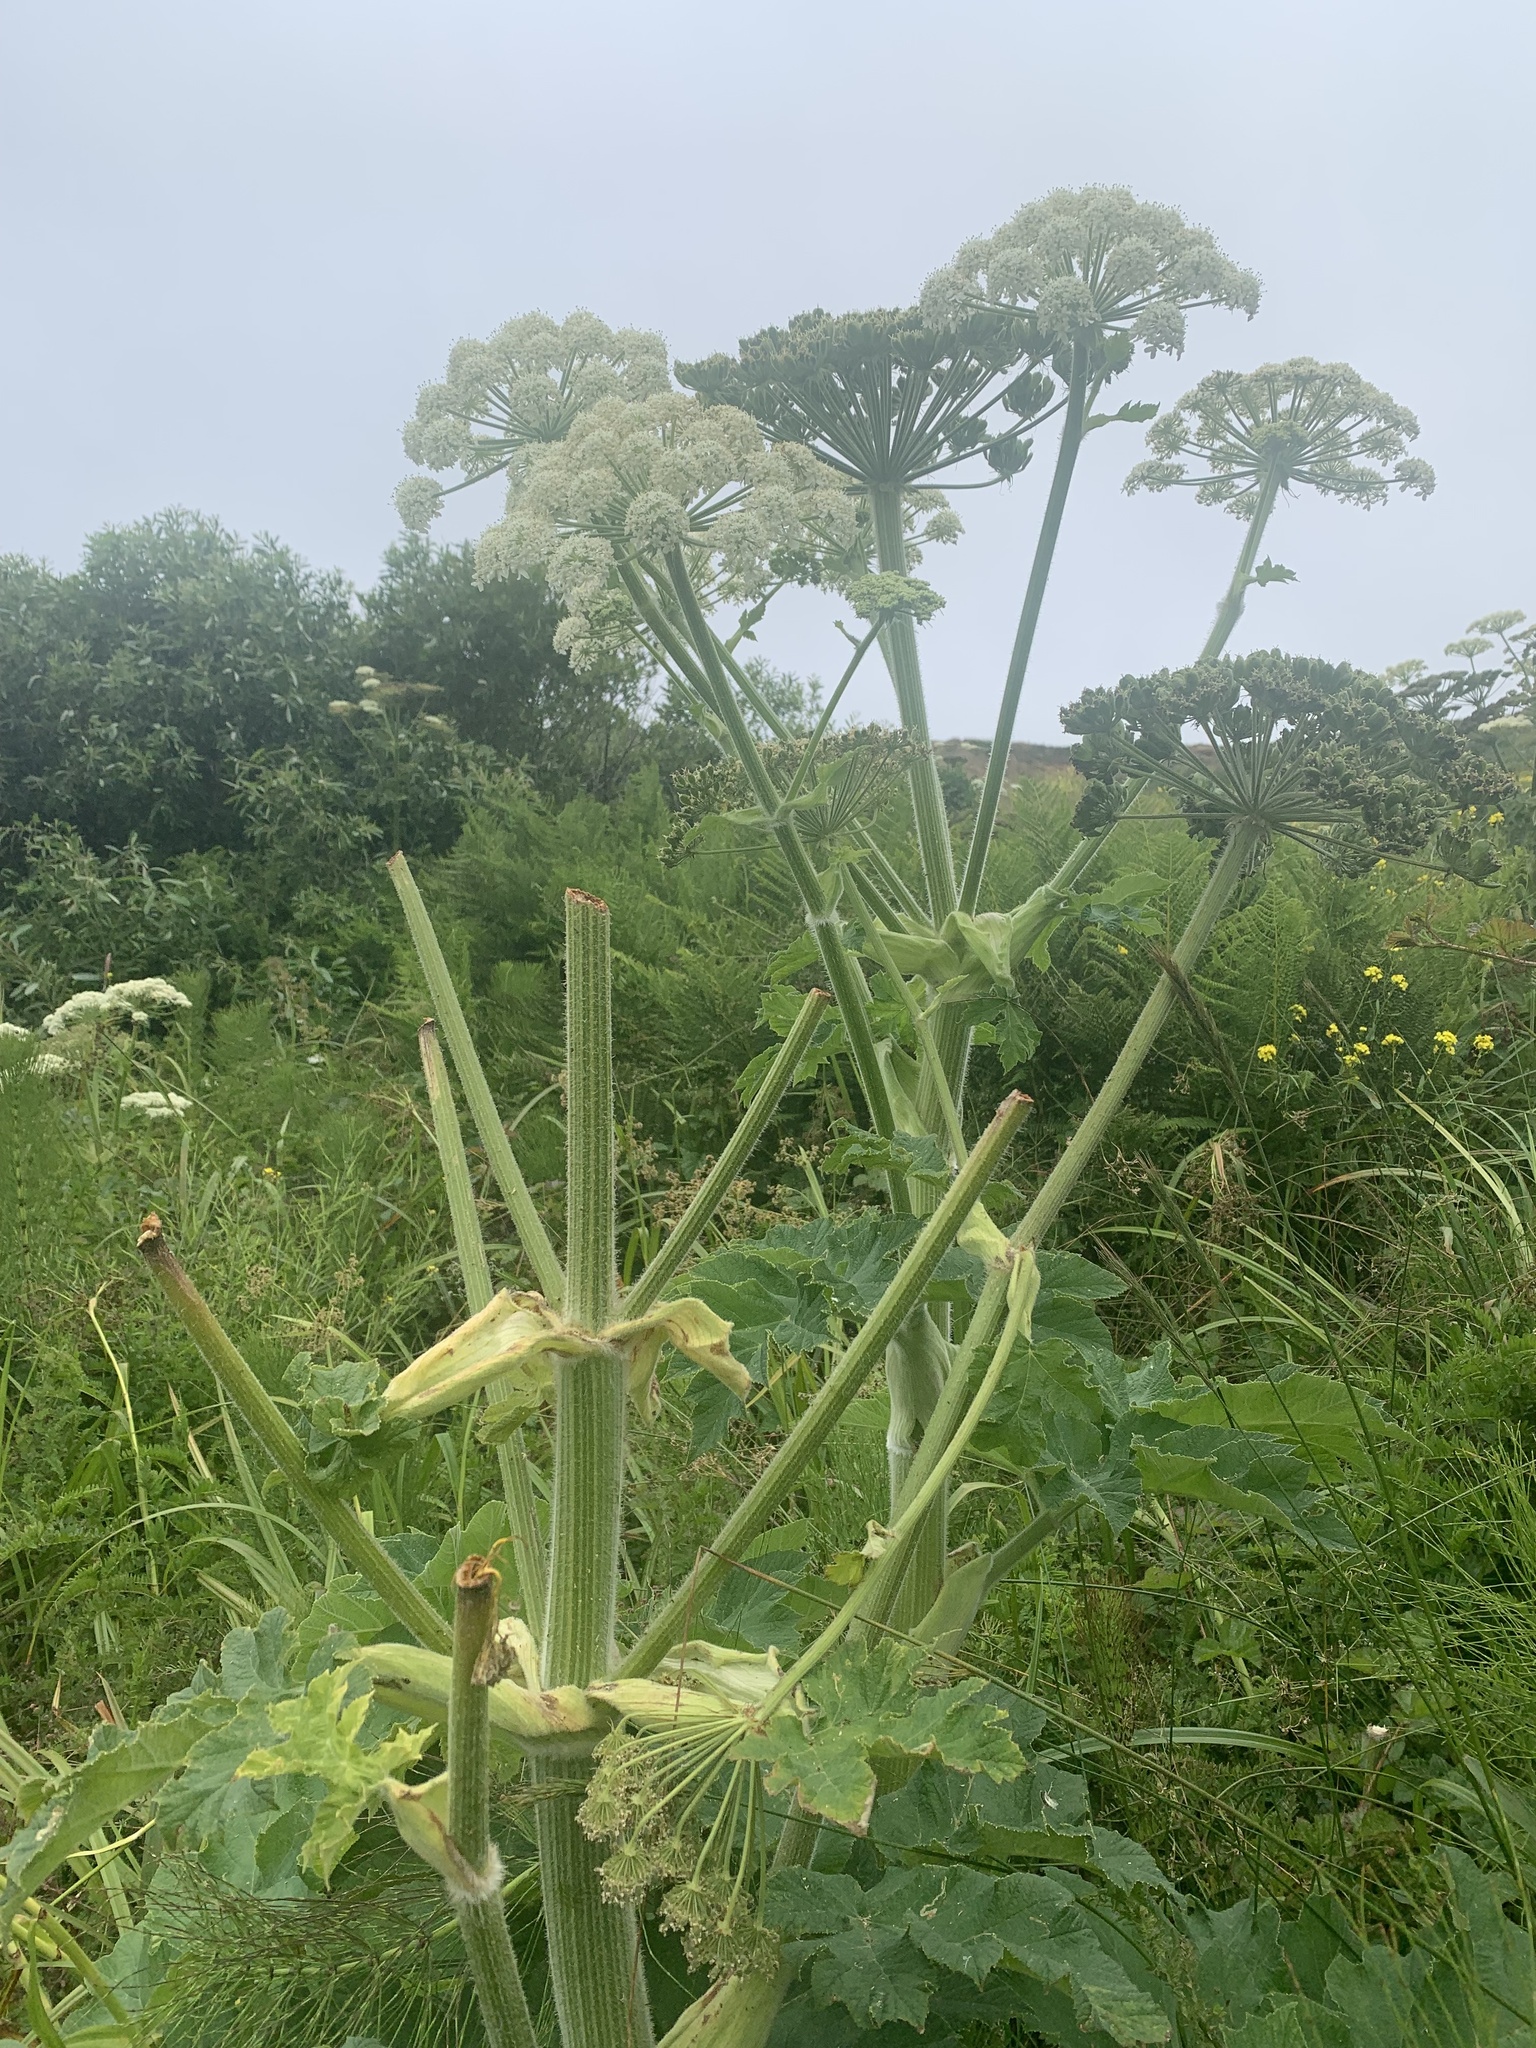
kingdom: Plantae
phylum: Tracheophyta
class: Magnoliopsida
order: Apiales
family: Apiaceae
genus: Heracleum
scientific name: Heracleum maximum
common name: American cow parsnip
